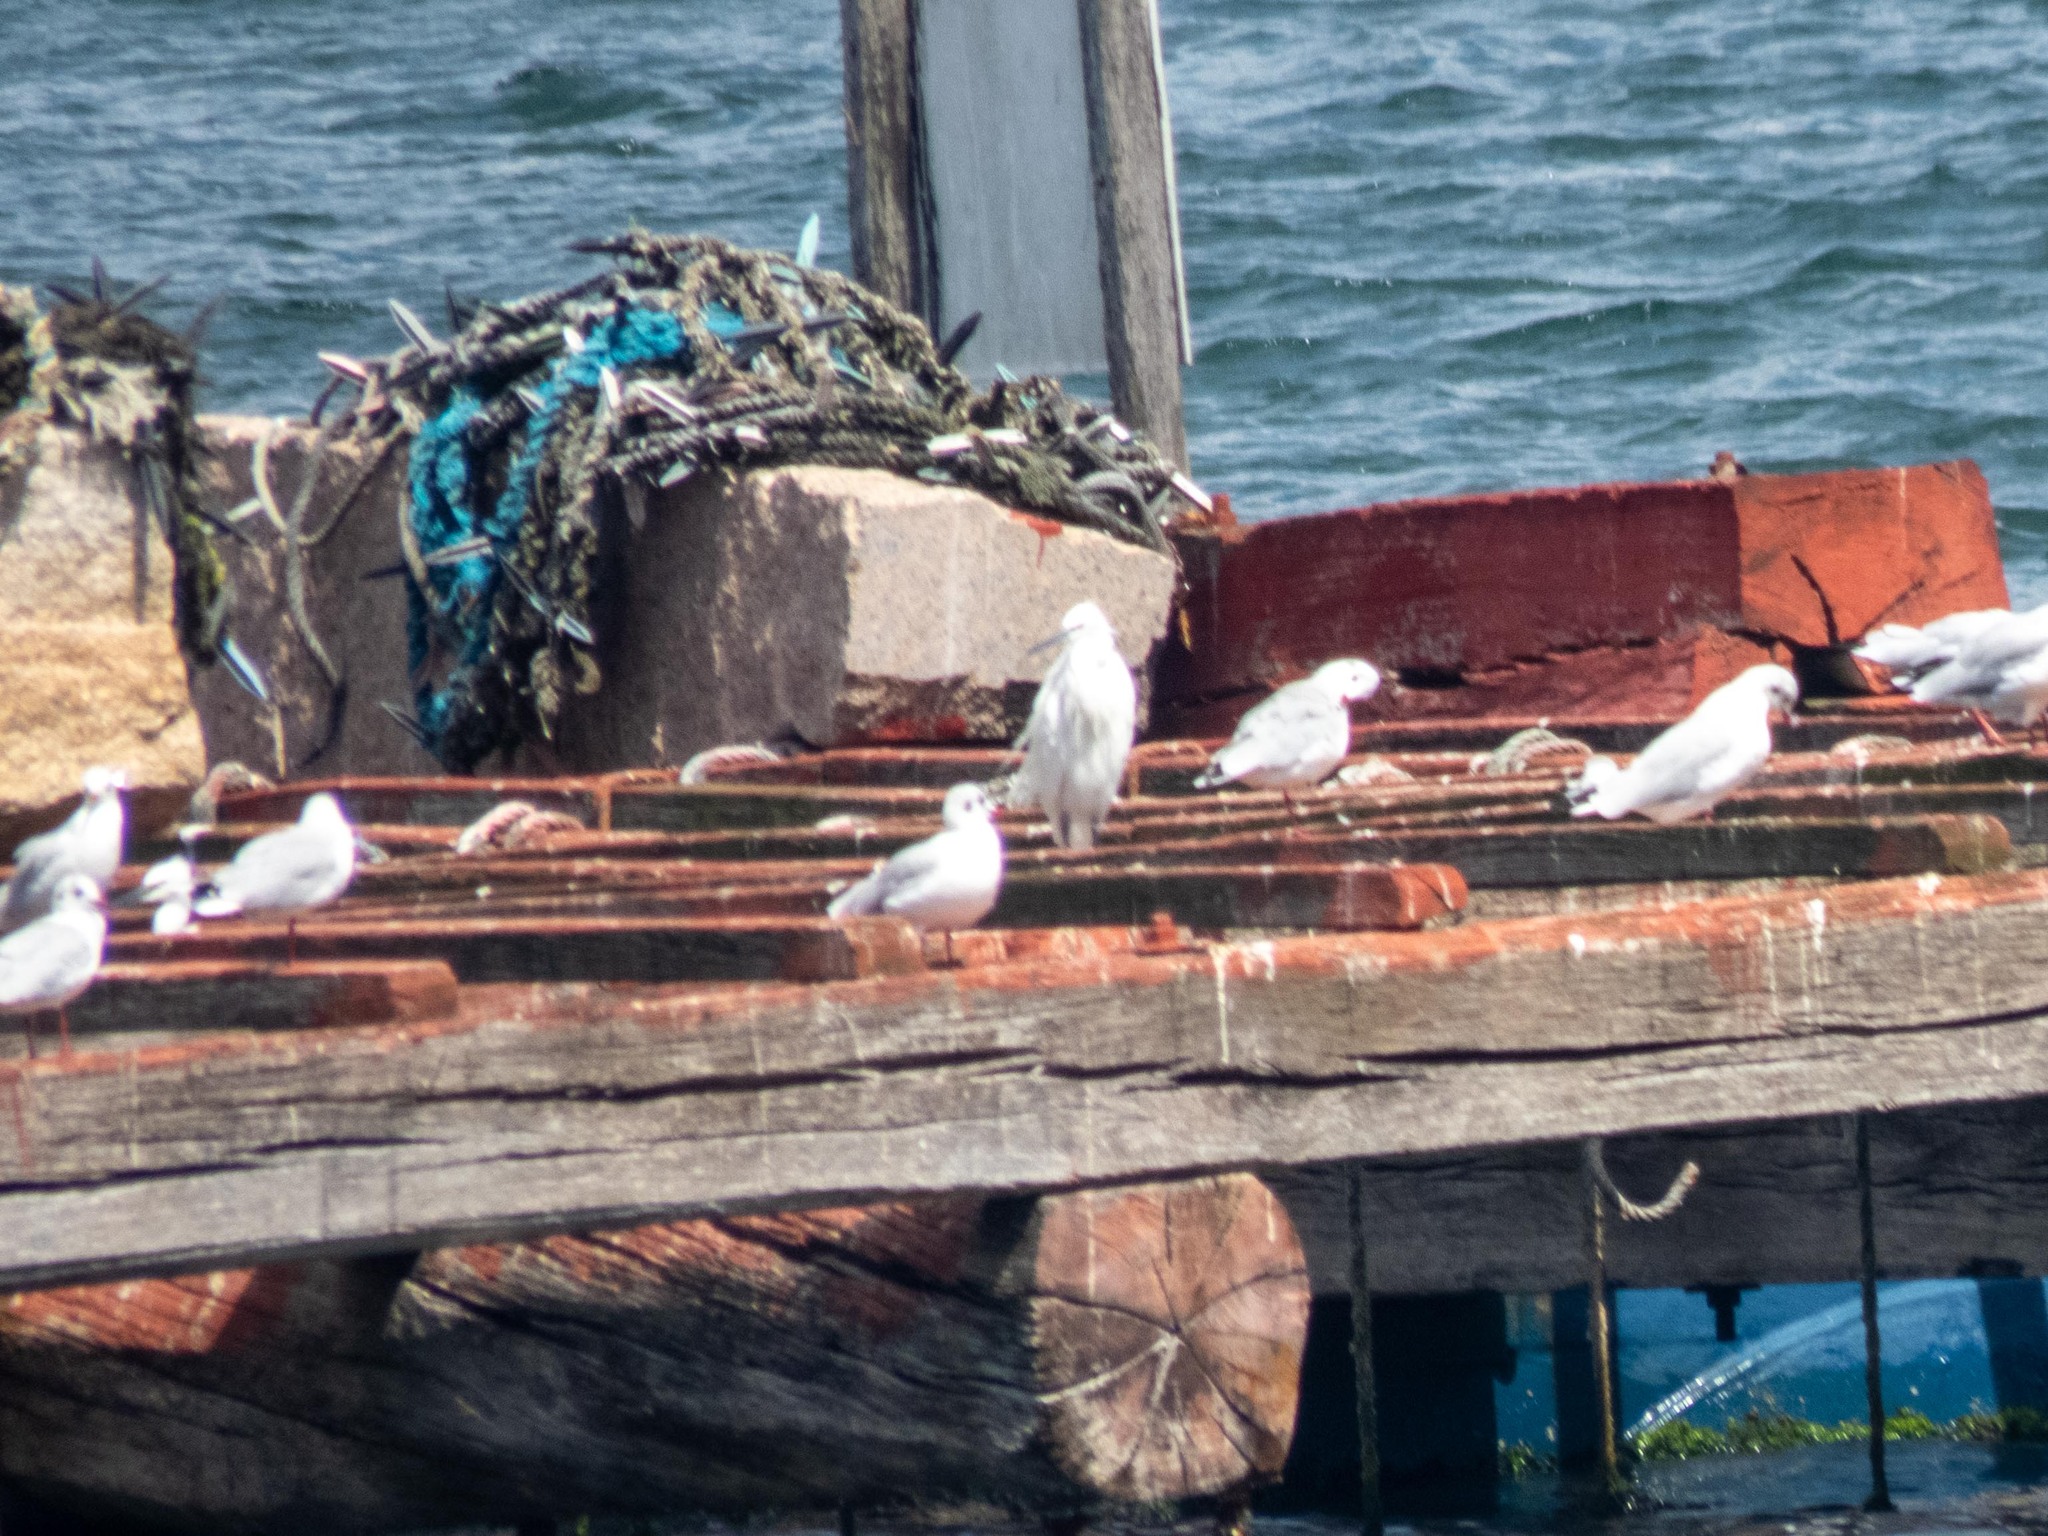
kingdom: Animalia
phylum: Chordata
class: Aves
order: Pelecaniformes
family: Ardeidae
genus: Egretta
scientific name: Egretta garzetta
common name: Little egret
